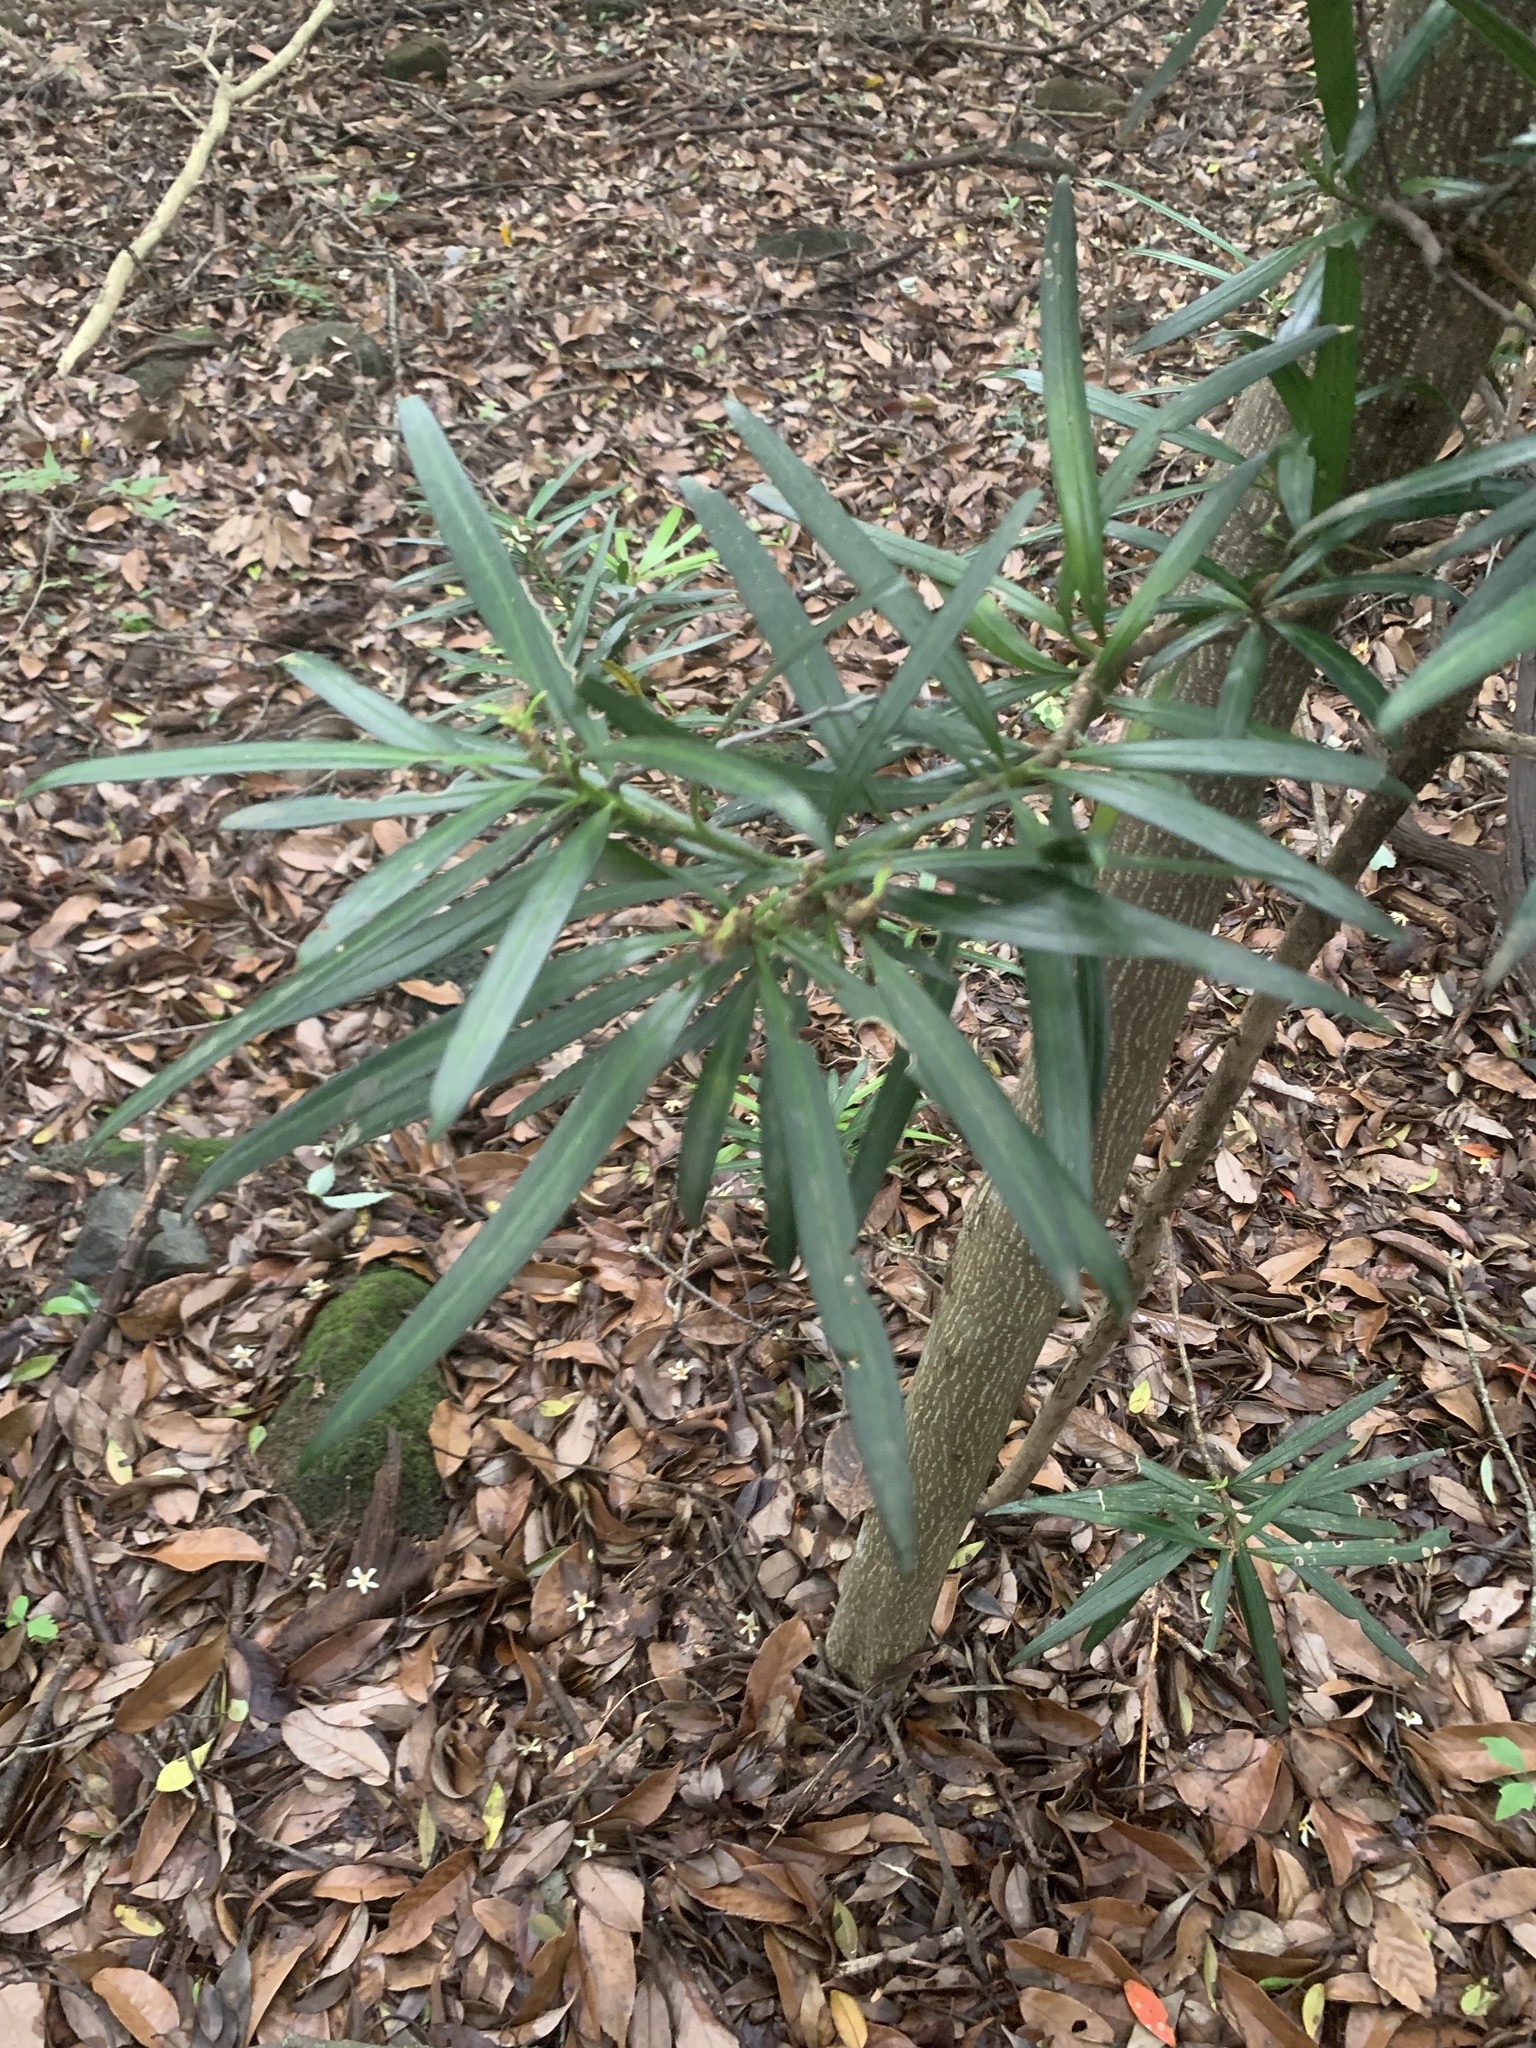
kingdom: Plantae
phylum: Tracheophyta
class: Pinopsida
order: Pinales
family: Podocarpaceae
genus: Podocarpus
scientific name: Podocarpus macrophyllus
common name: Japanese yew
